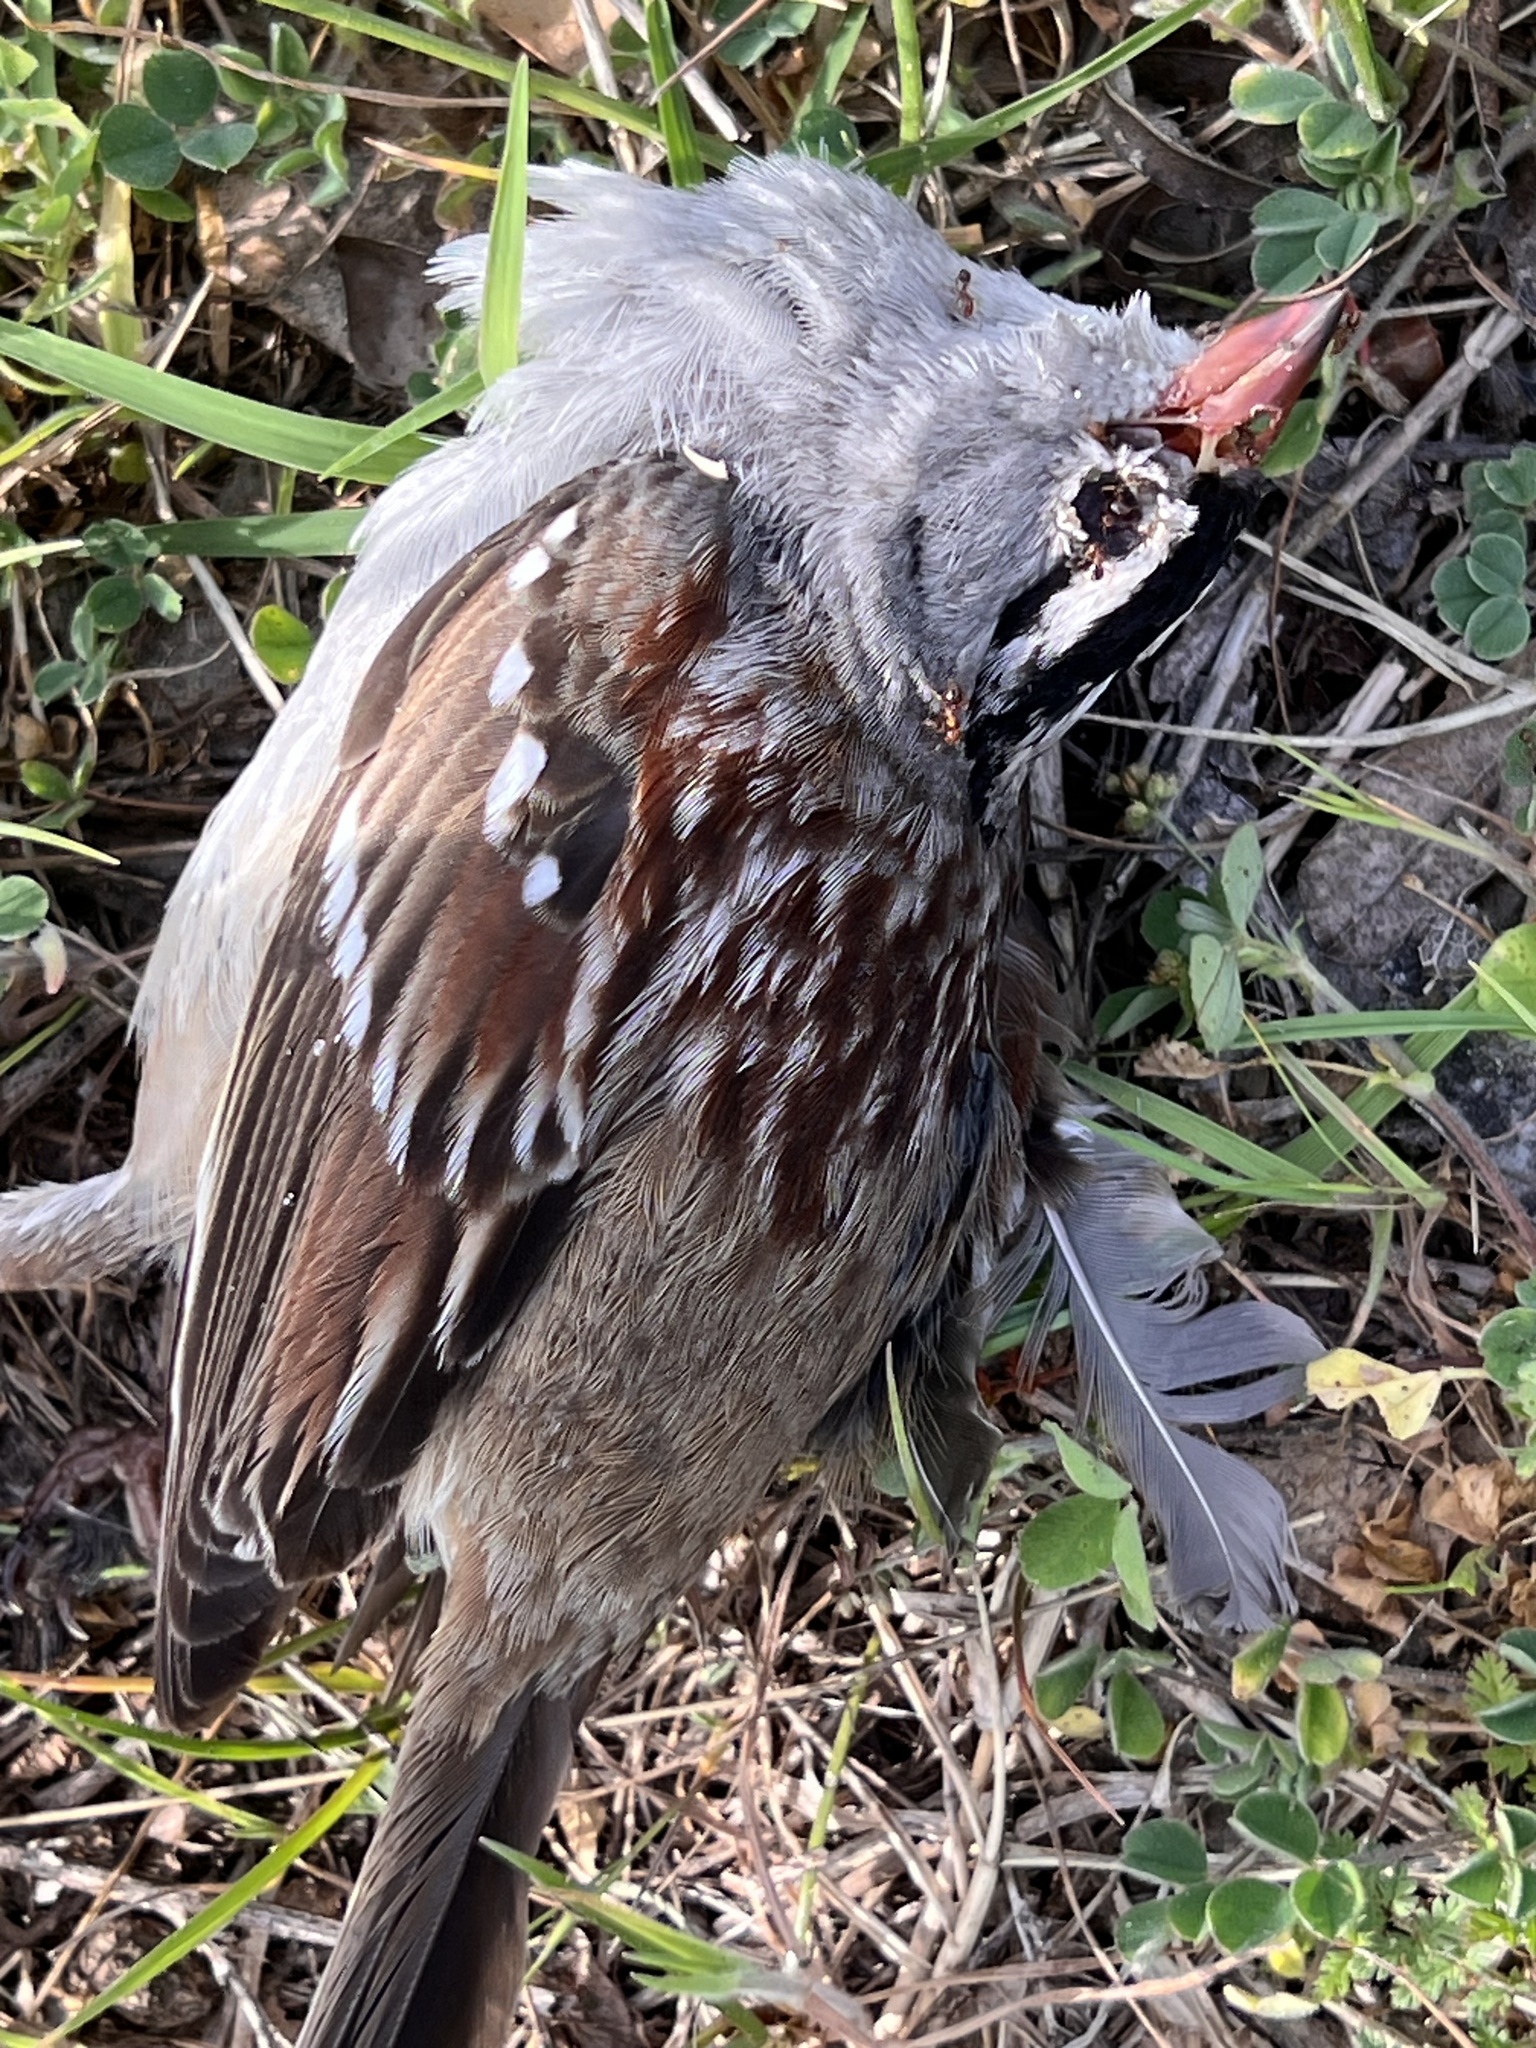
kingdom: Animalia
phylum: Chordata
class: Aves
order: Passeriformes
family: Passerellidae
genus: Zonotrichia
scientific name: Zonotrichia leucophrys
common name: White-crowned sparrow
